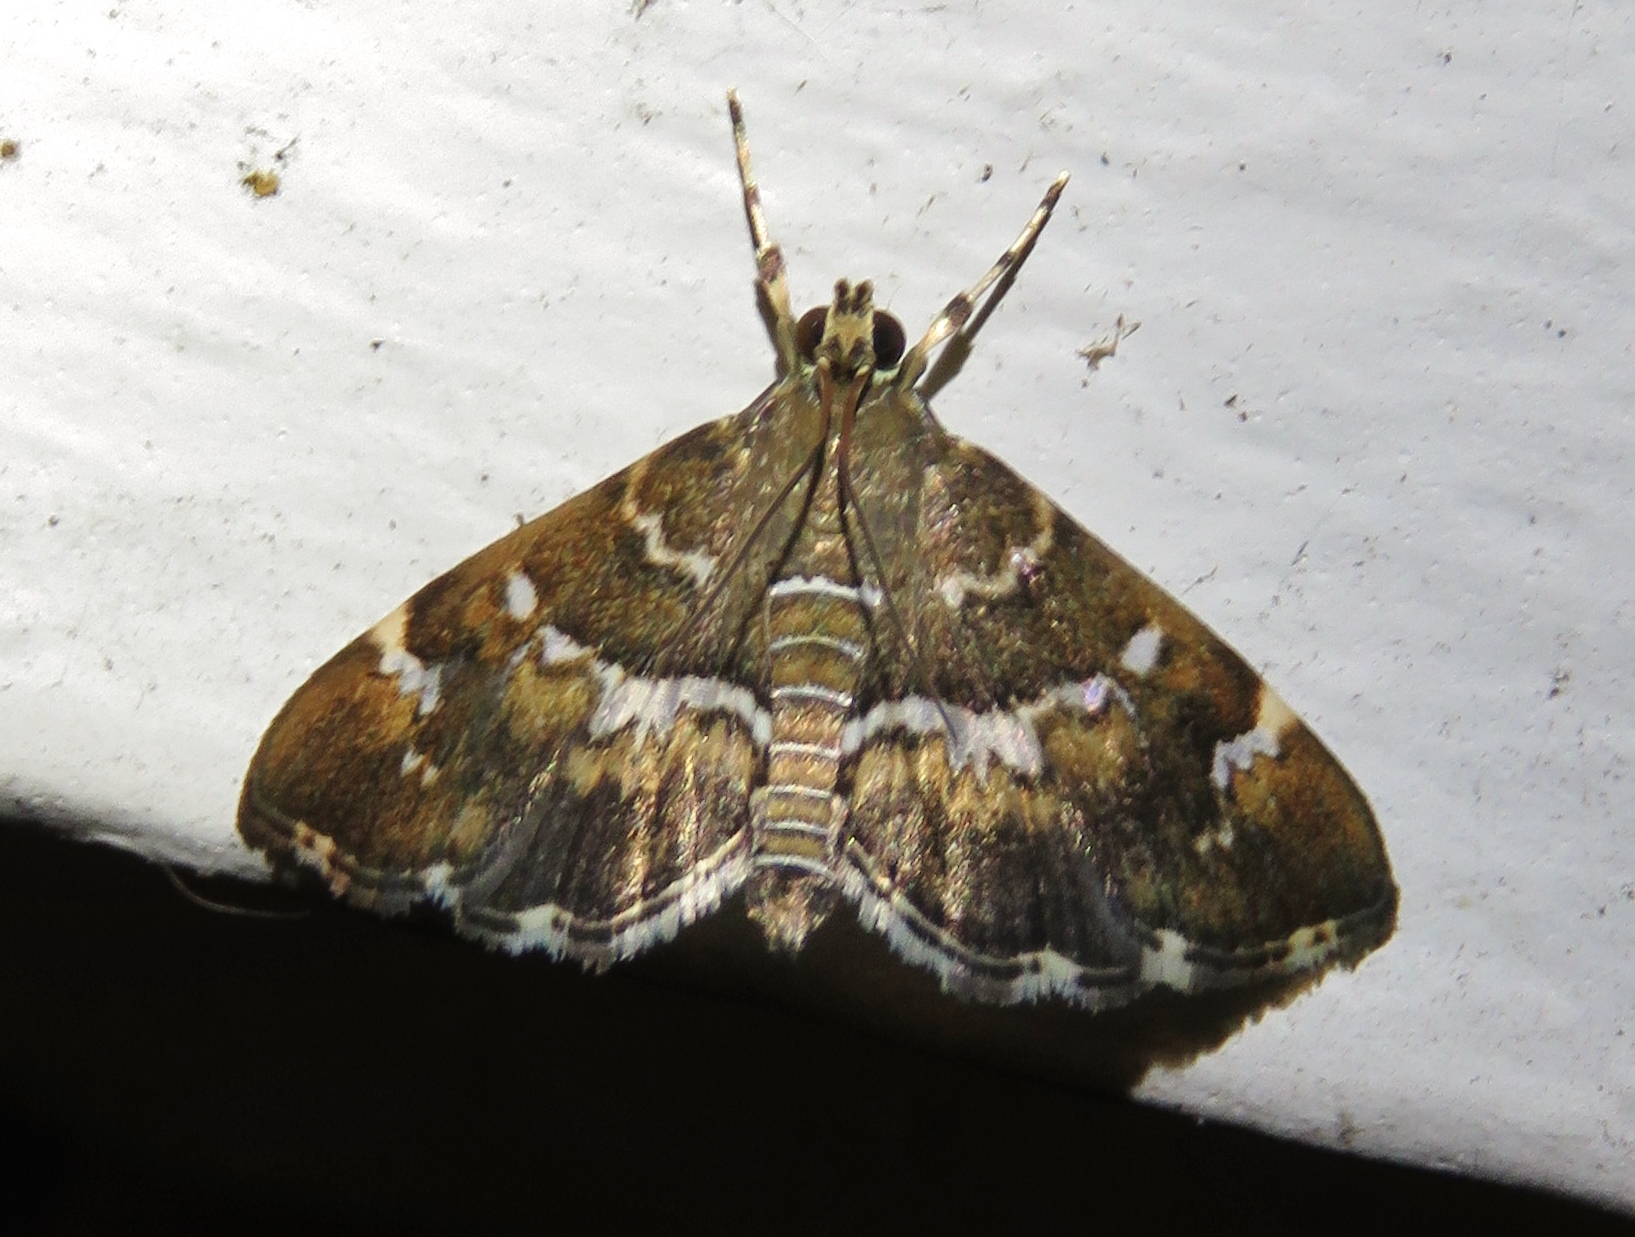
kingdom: Animalia
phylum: Arthropoda
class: Insecta
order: Lepidoptera
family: Crambidae
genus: Hymenia
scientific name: Hymenia perspectalis
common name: Spotted beet webworm
